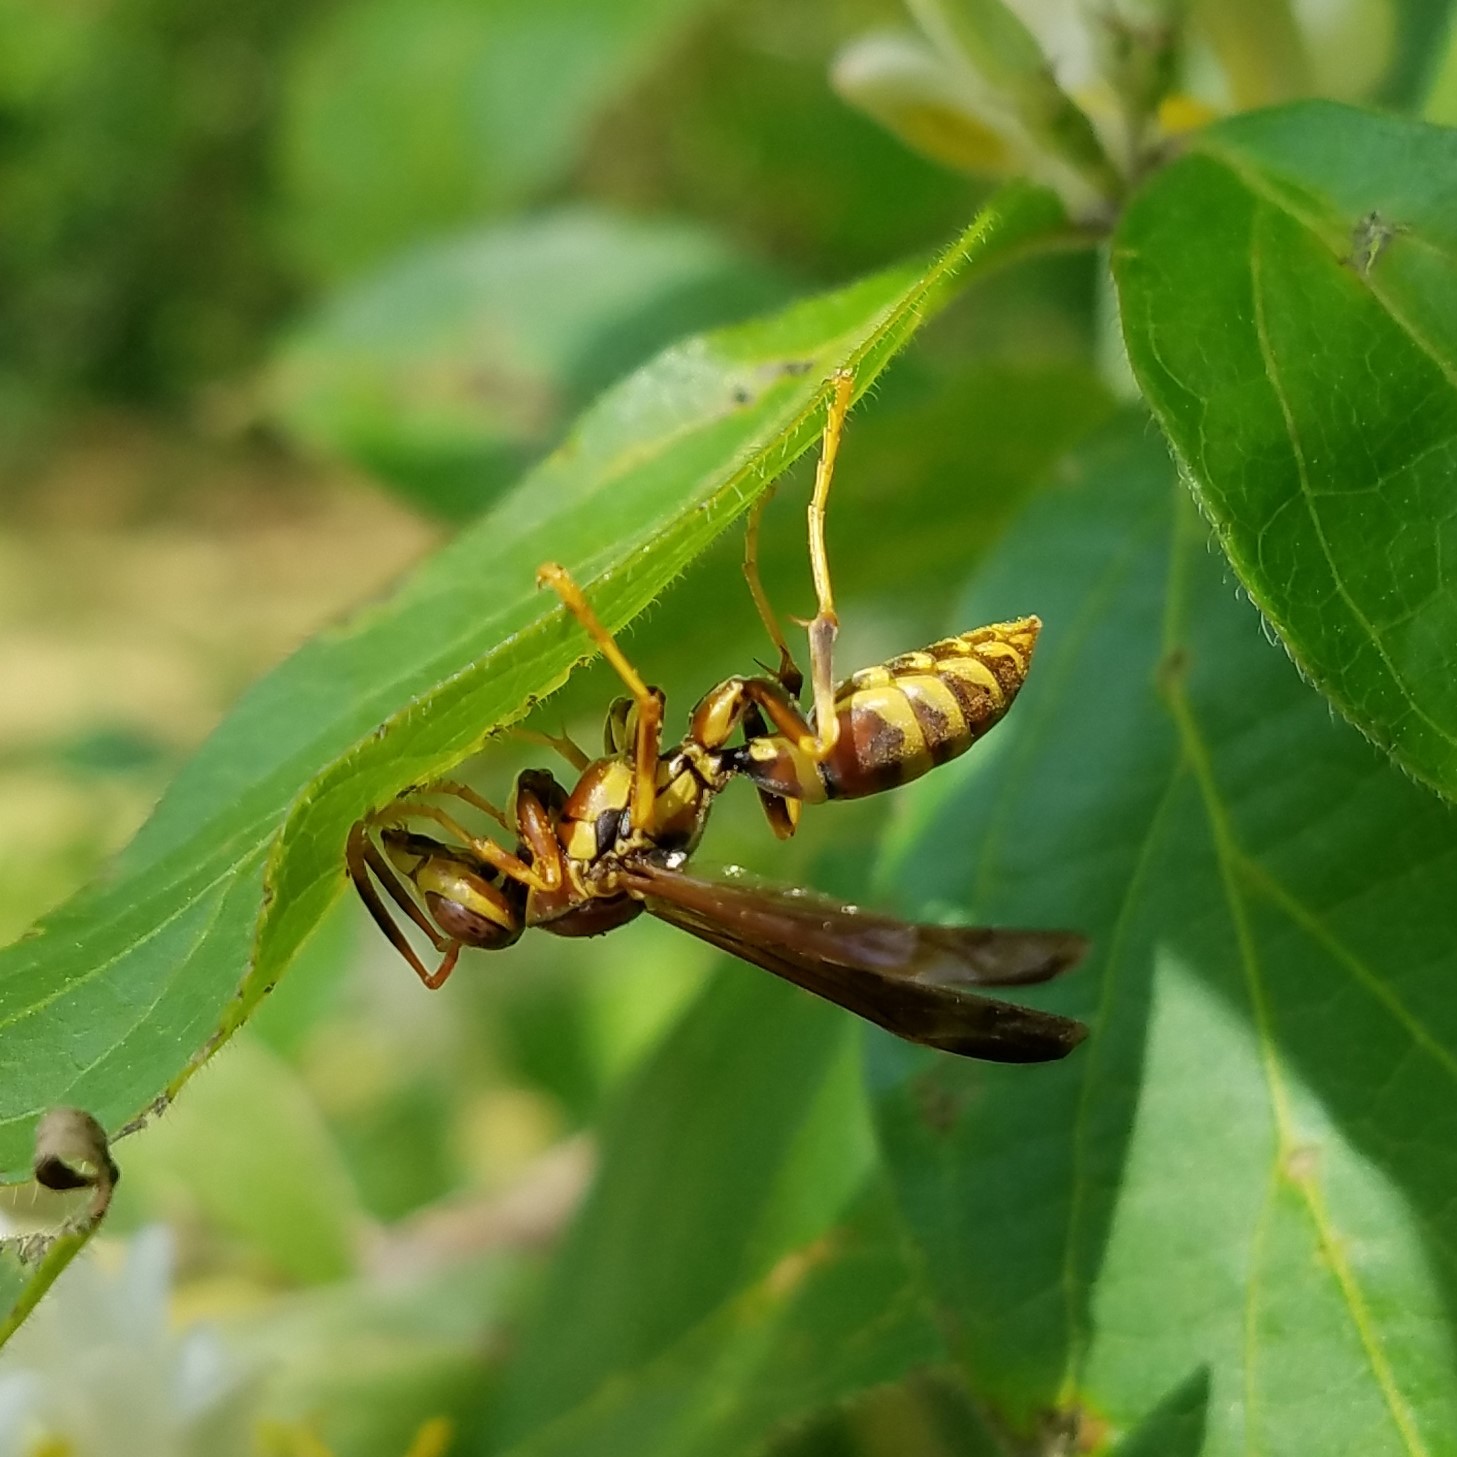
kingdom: Animalia
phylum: Arthropoda
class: Insecta
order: Hymenoptera
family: Eumenidae
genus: Polistes
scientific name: Polistes exclamans
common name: Paper wasp
